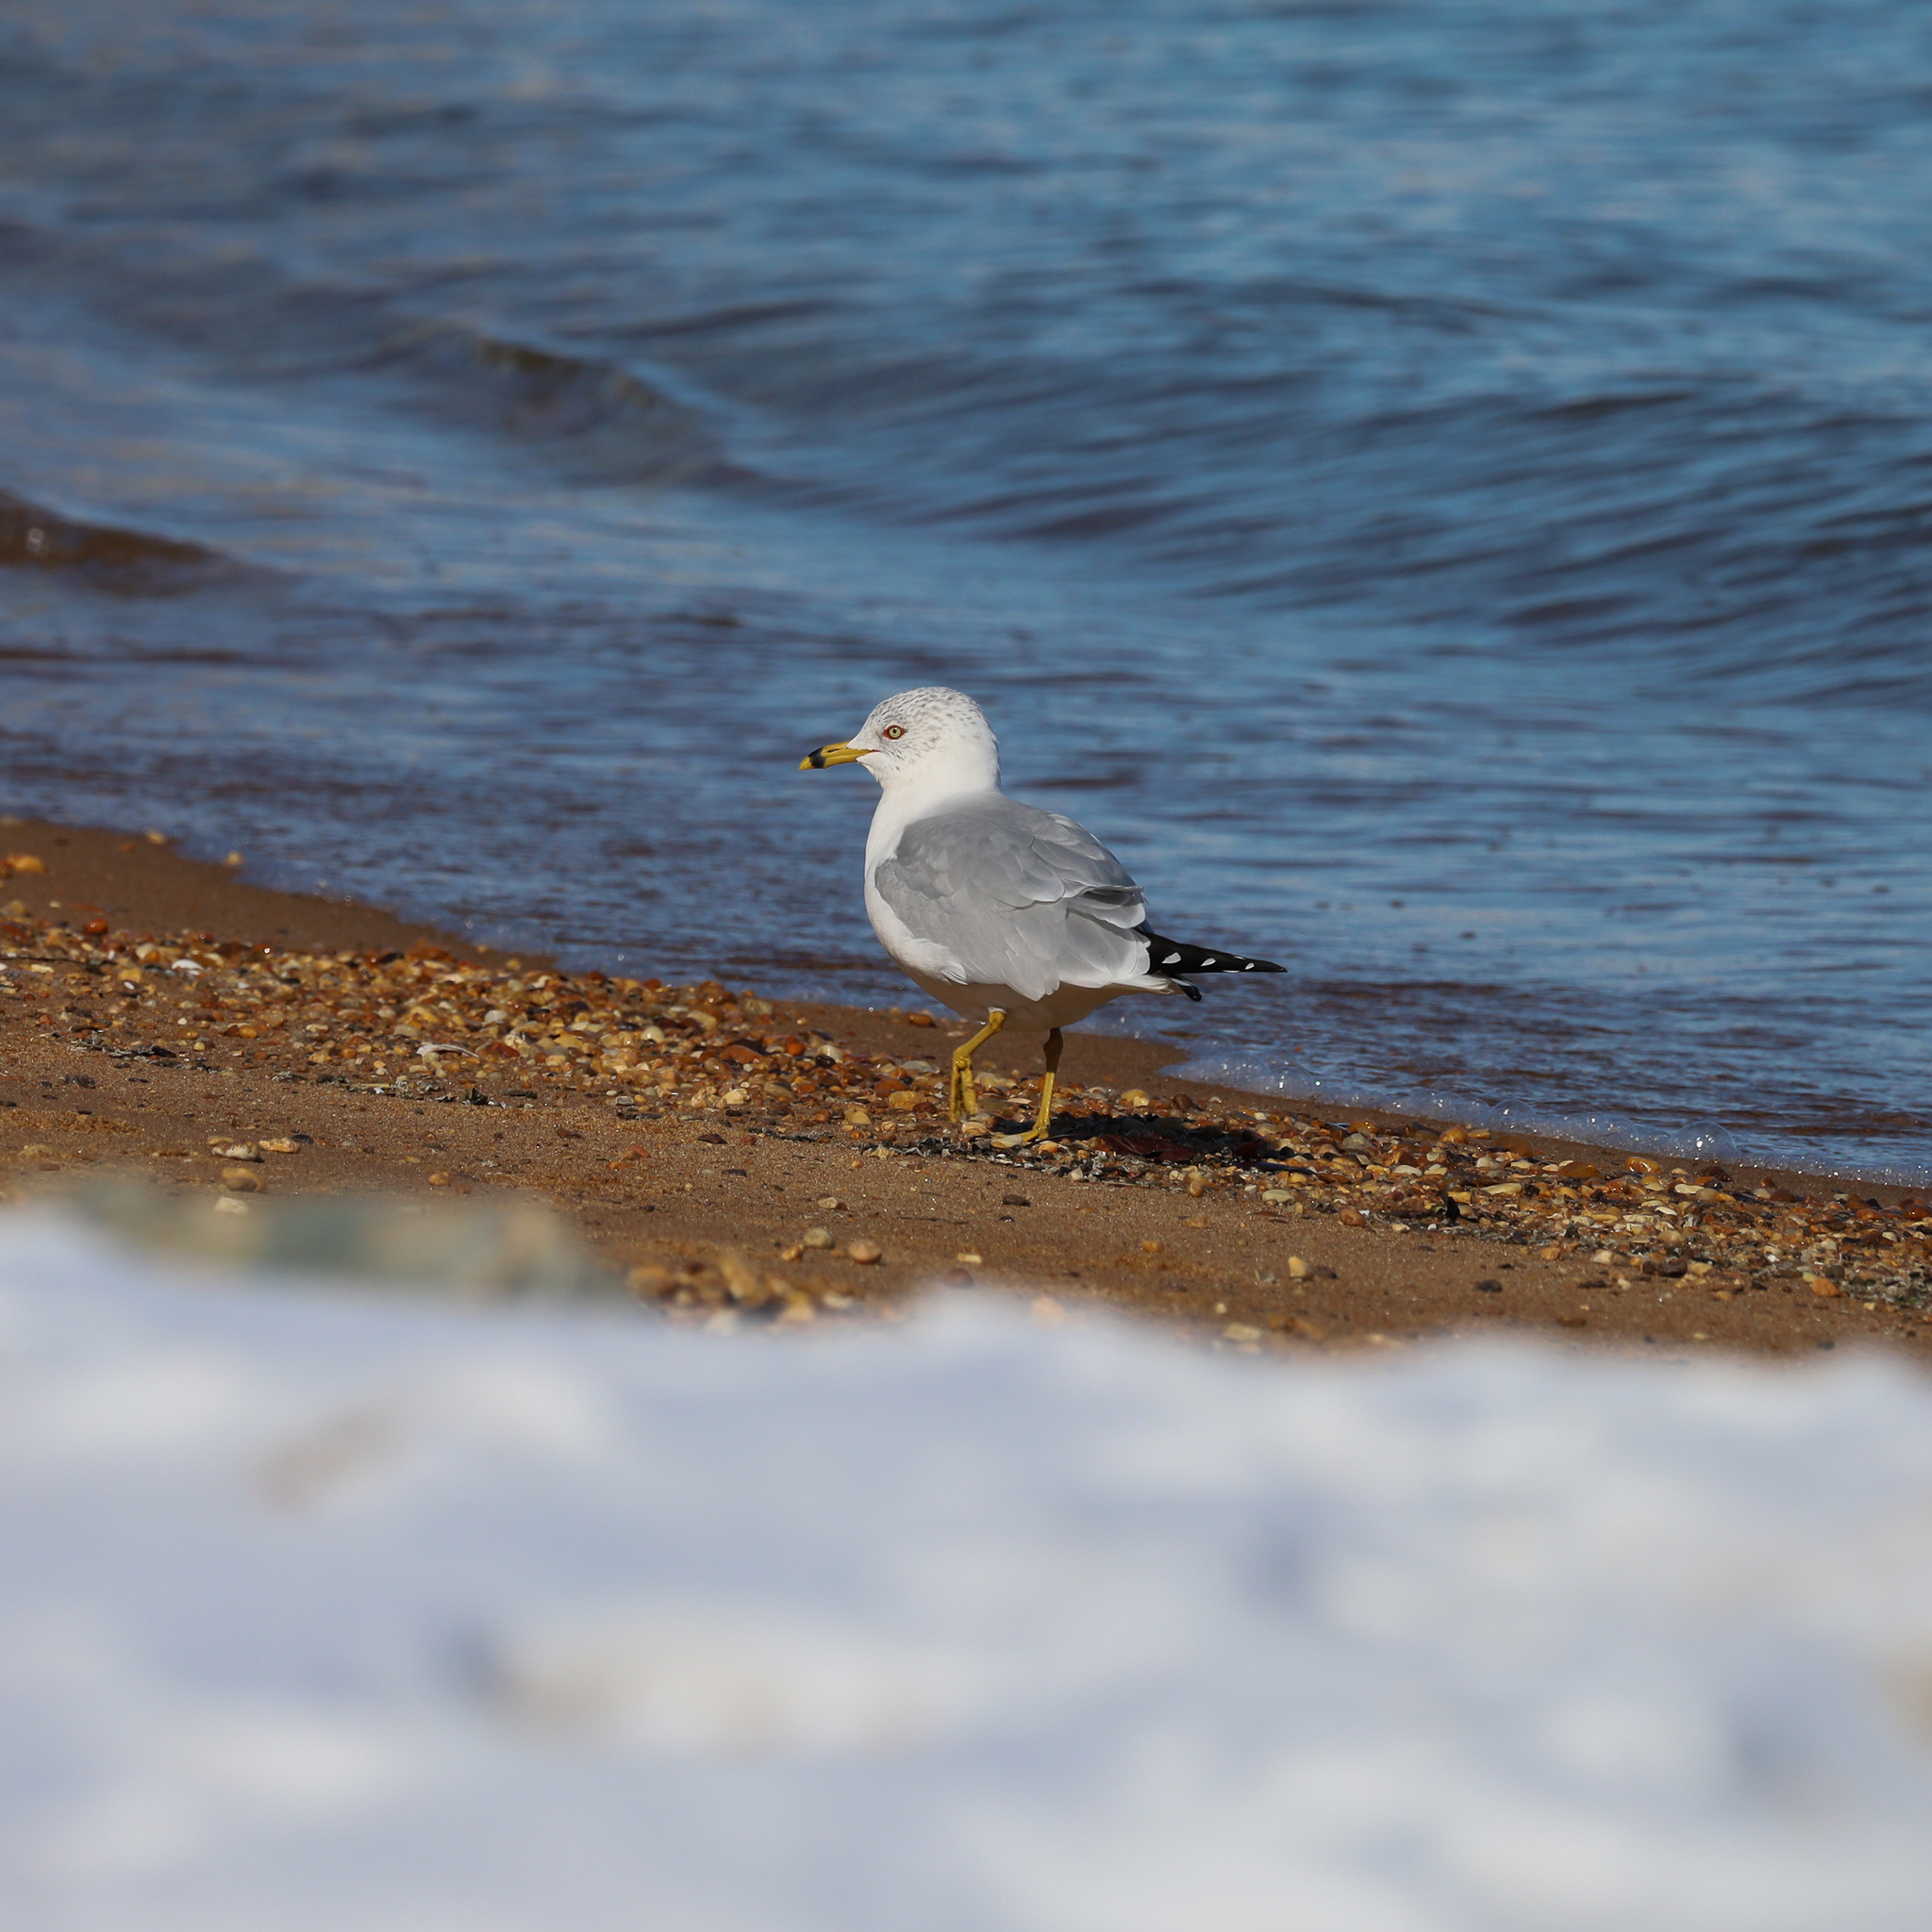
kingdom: Animalia
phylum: Chordata
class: Aves
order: Charadriiformes
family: Laridae
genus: Larus
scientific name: Larus delawarensis
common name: Ring-billed gull
